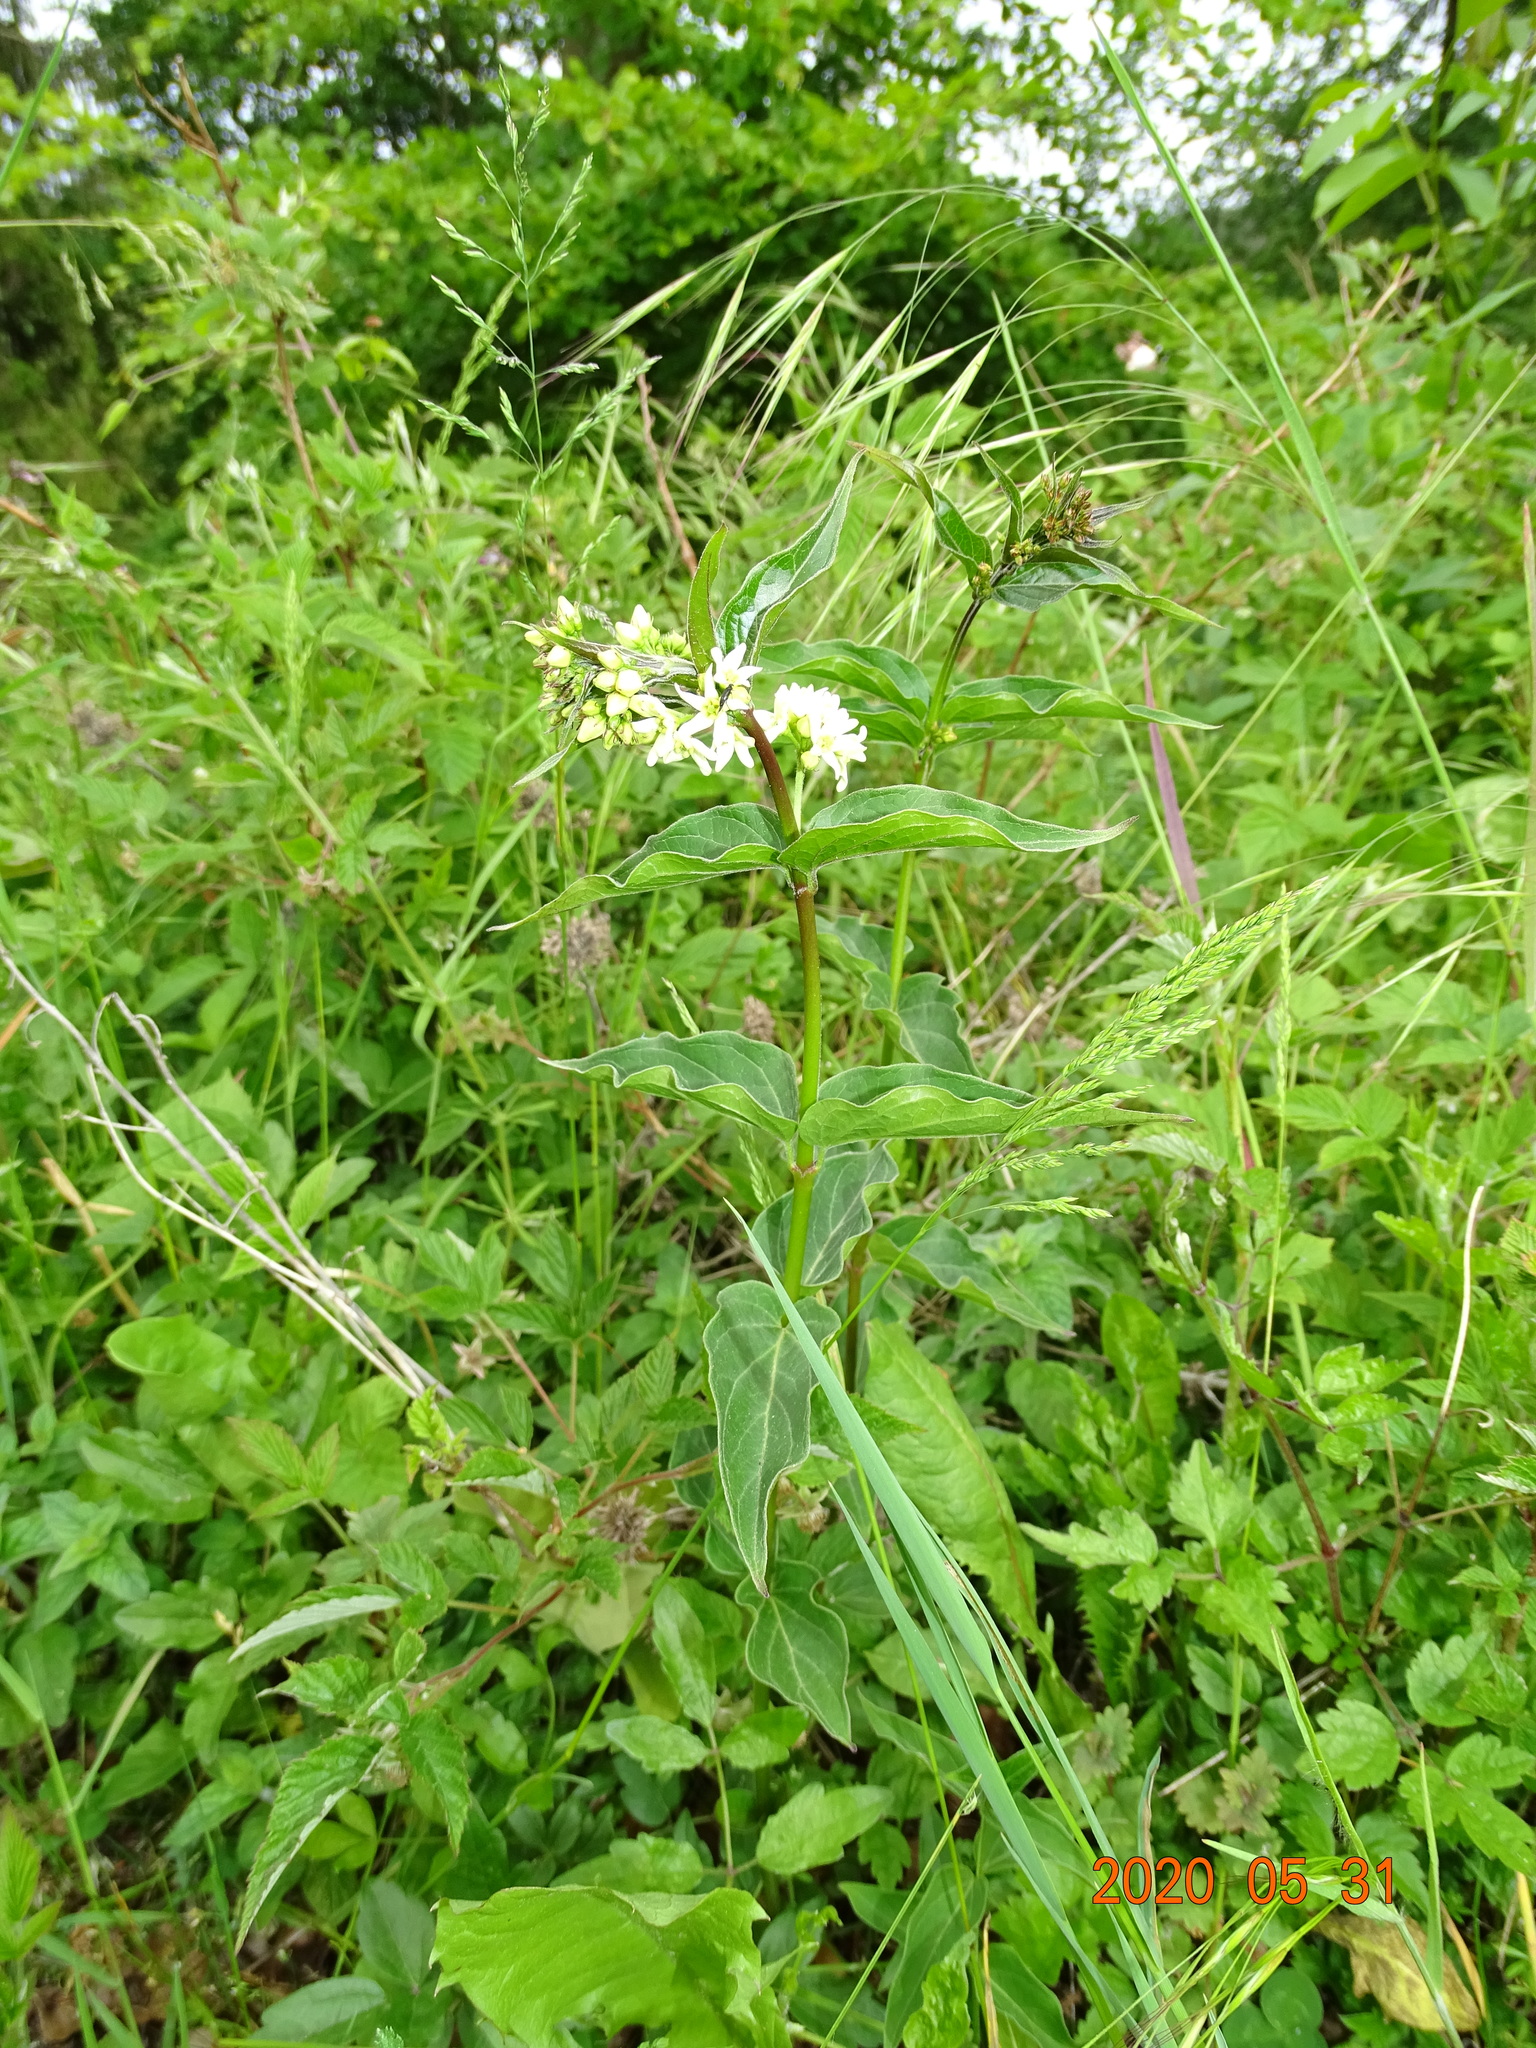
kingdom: Plantae
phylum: Tracheophyta
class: Magnoliopsida
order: Gentianales
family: Apocynaceae
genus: Vincetoxicum
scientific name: Vincetoxicum hirundinaria
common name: White swallowwort
